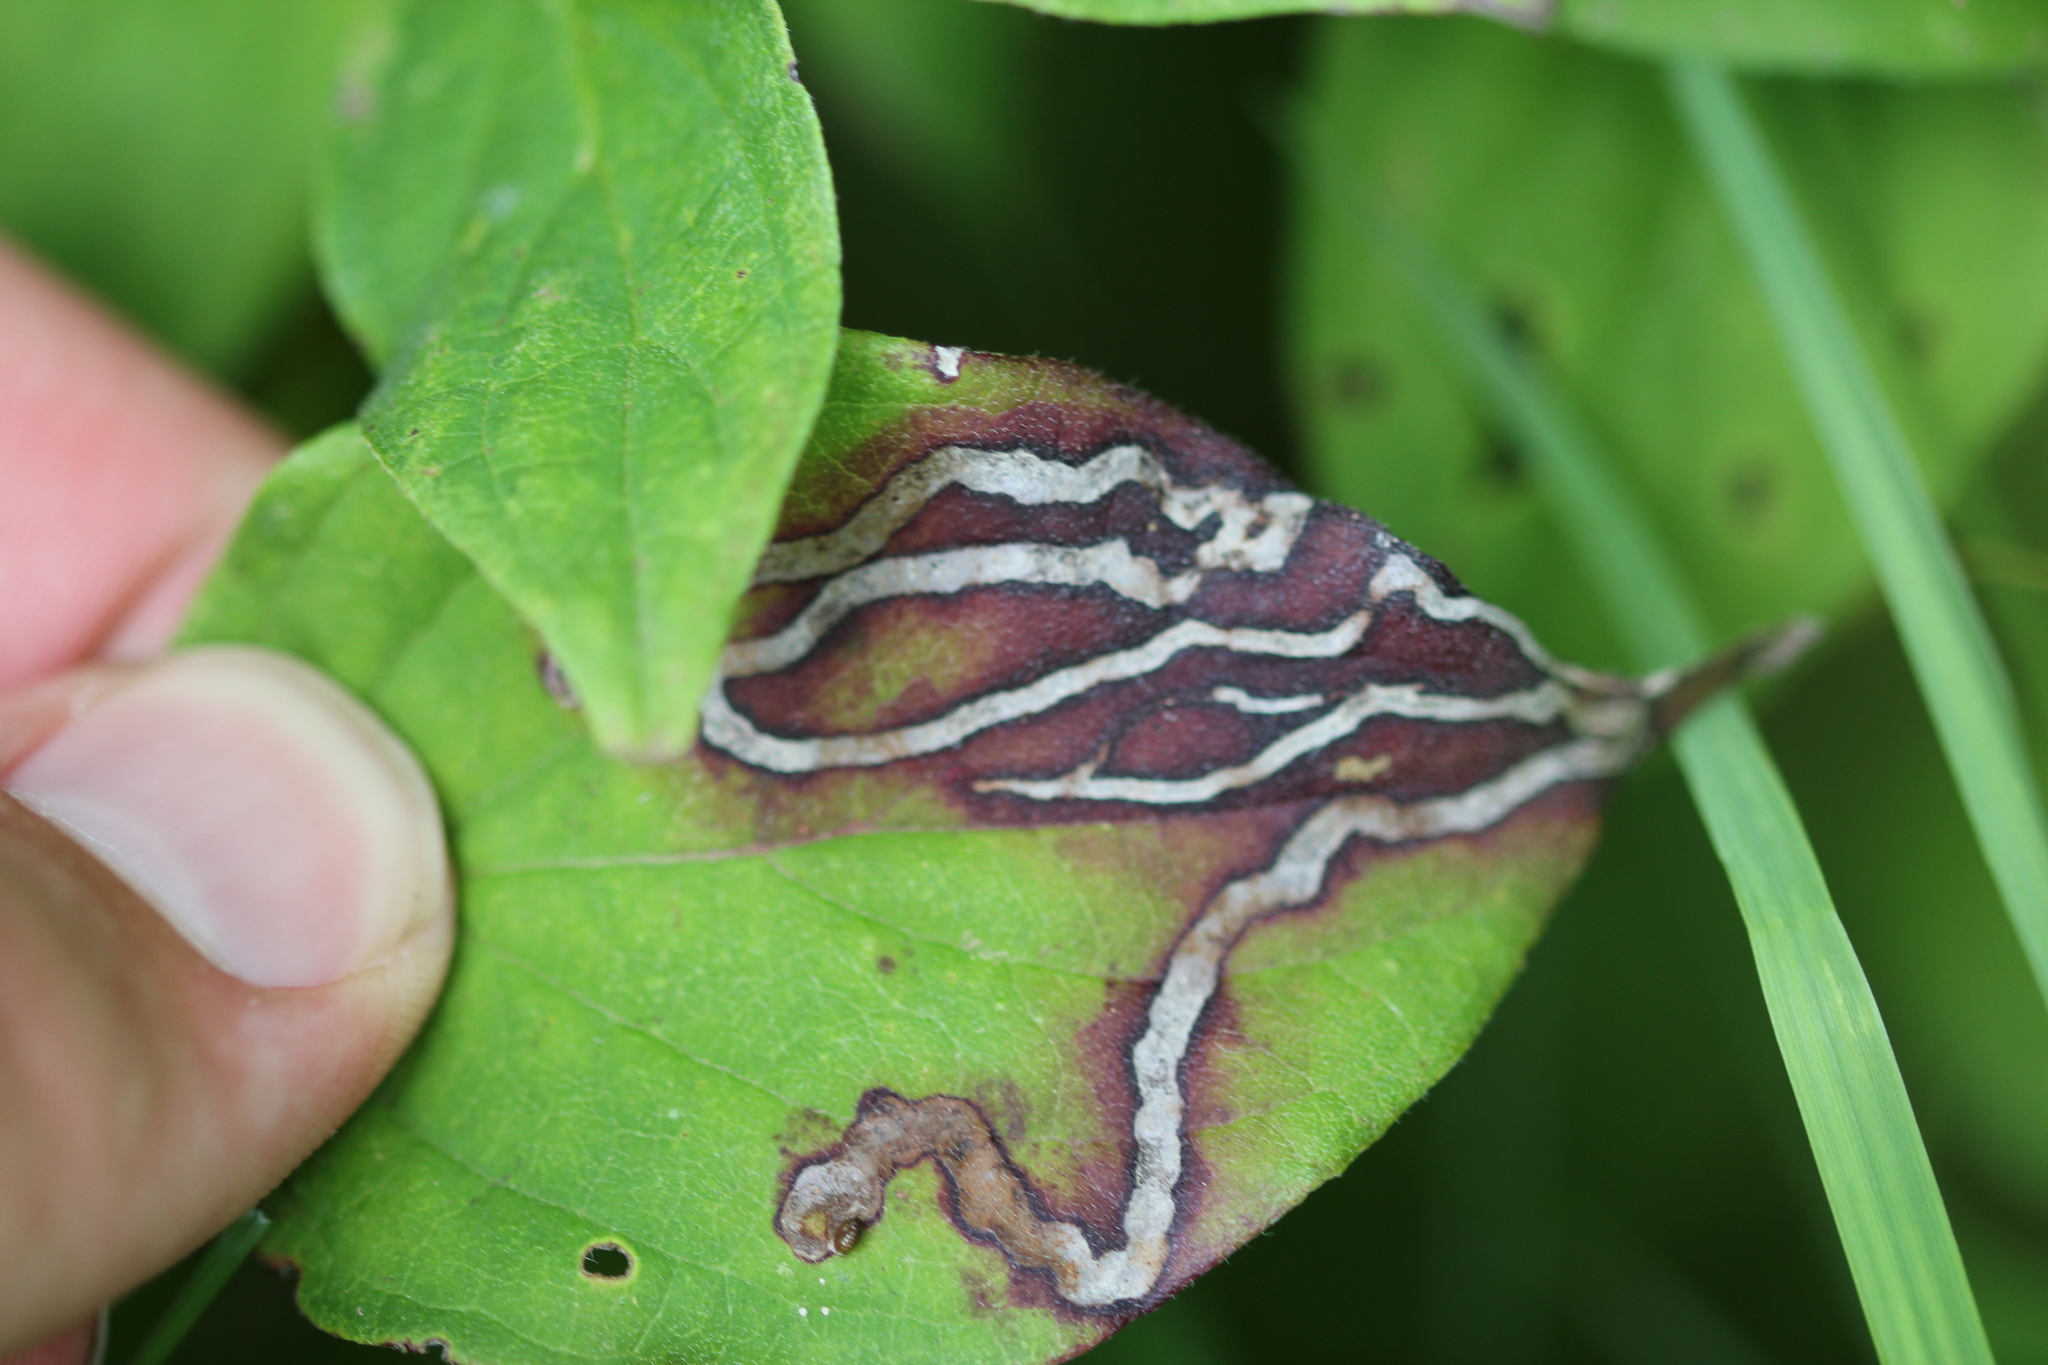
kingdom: Animalia
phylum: Arthropoda
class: Insecta
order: Diptera
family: Agromyzidae
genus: Phytomyza
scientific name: Phytomyza agromyzina
